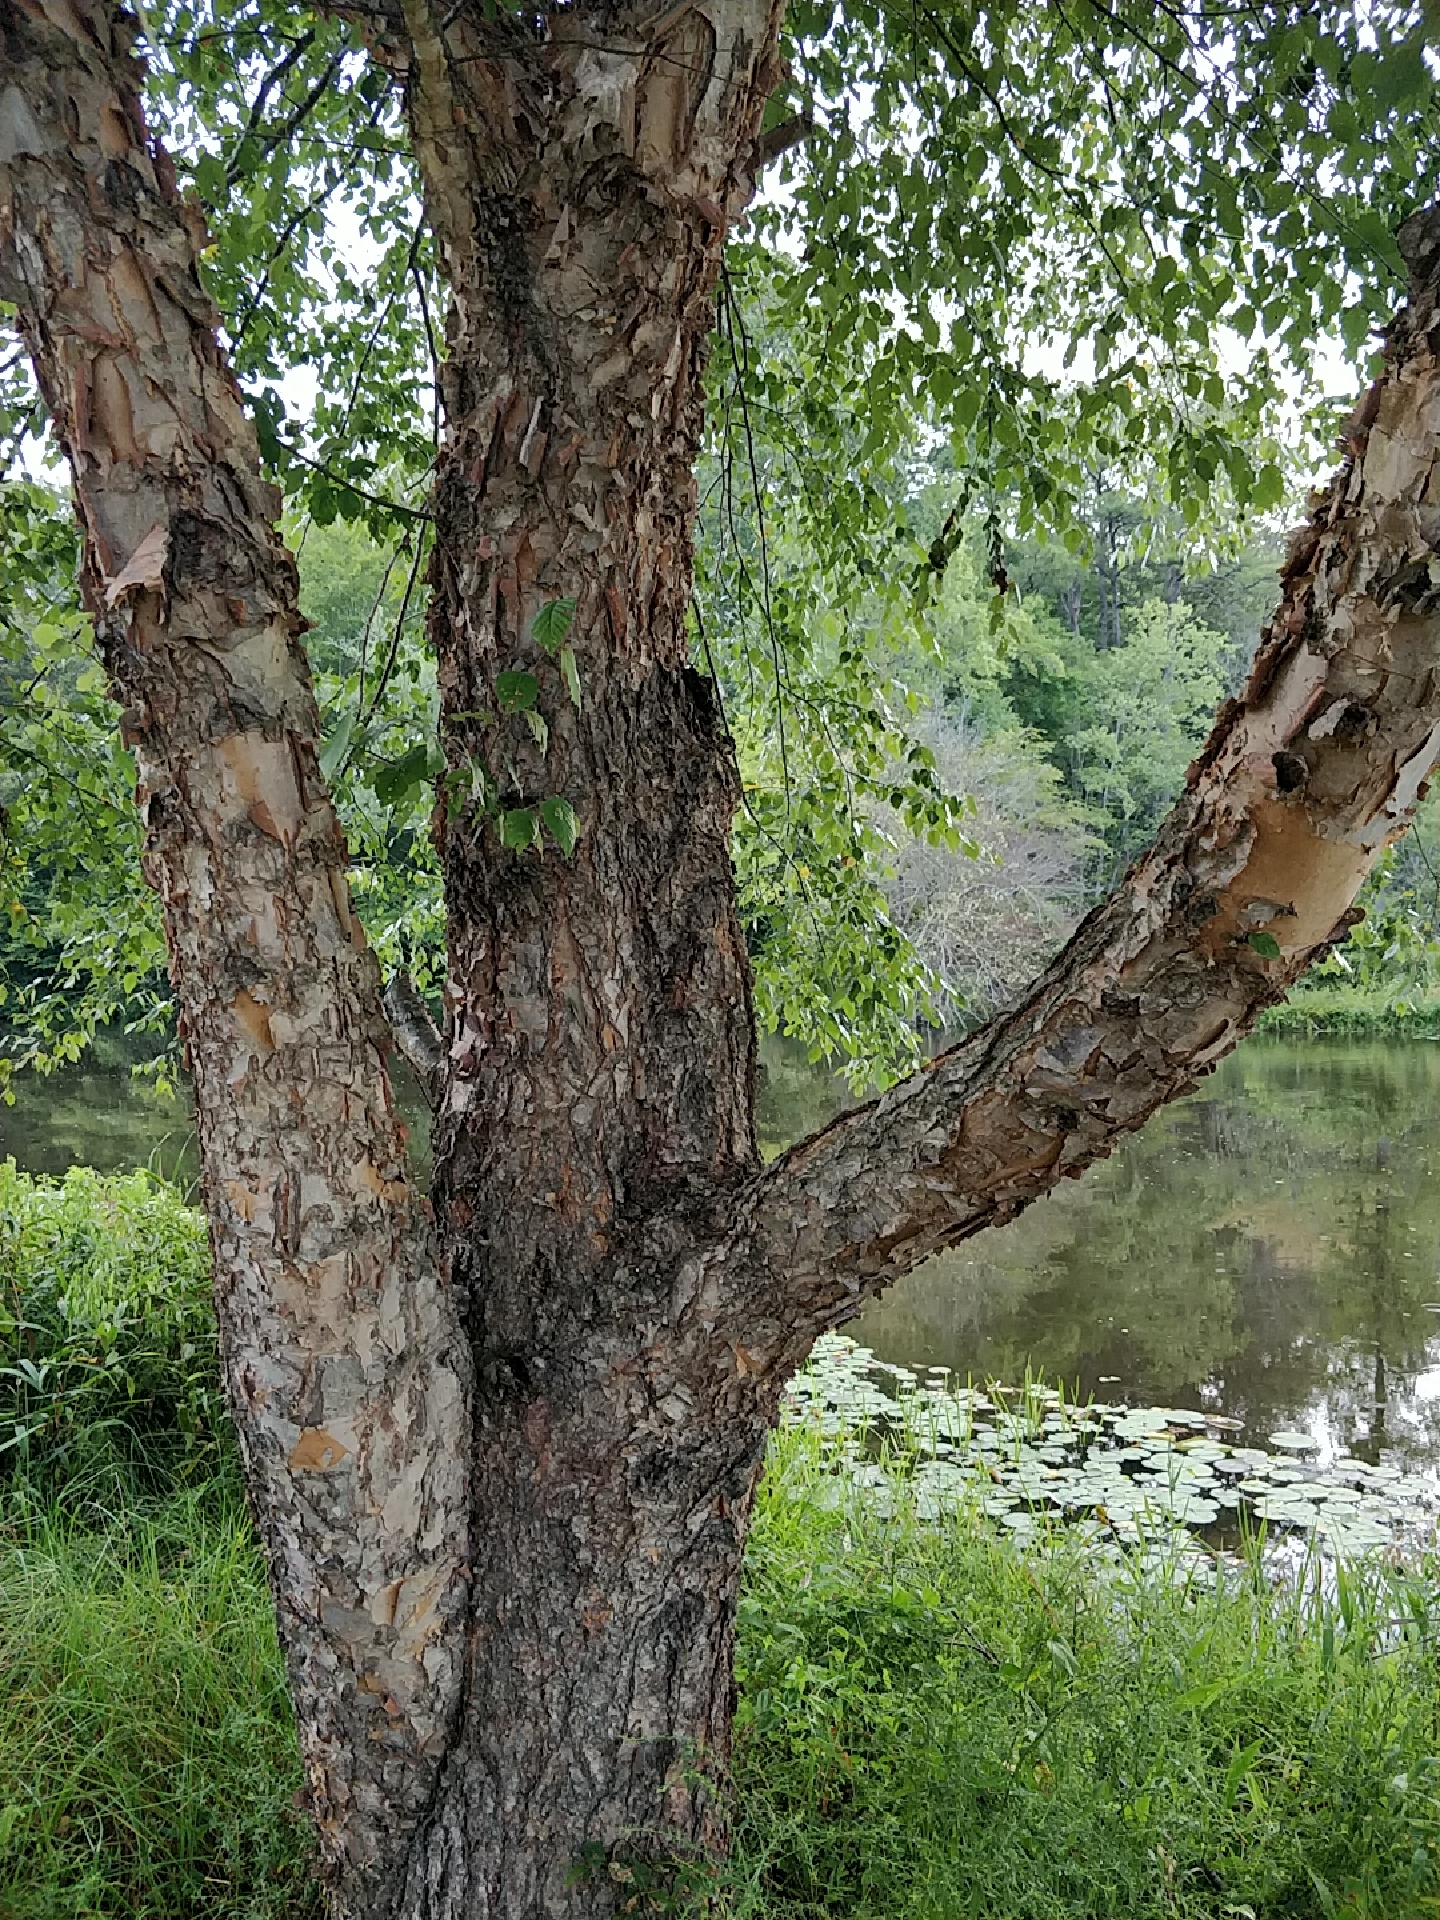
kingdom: Plantae
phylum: Tracheophyta
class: Magnoliopsida
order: Fagales
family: Betulaceae
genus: Betula
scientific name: Betula nigra
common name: Black birch
